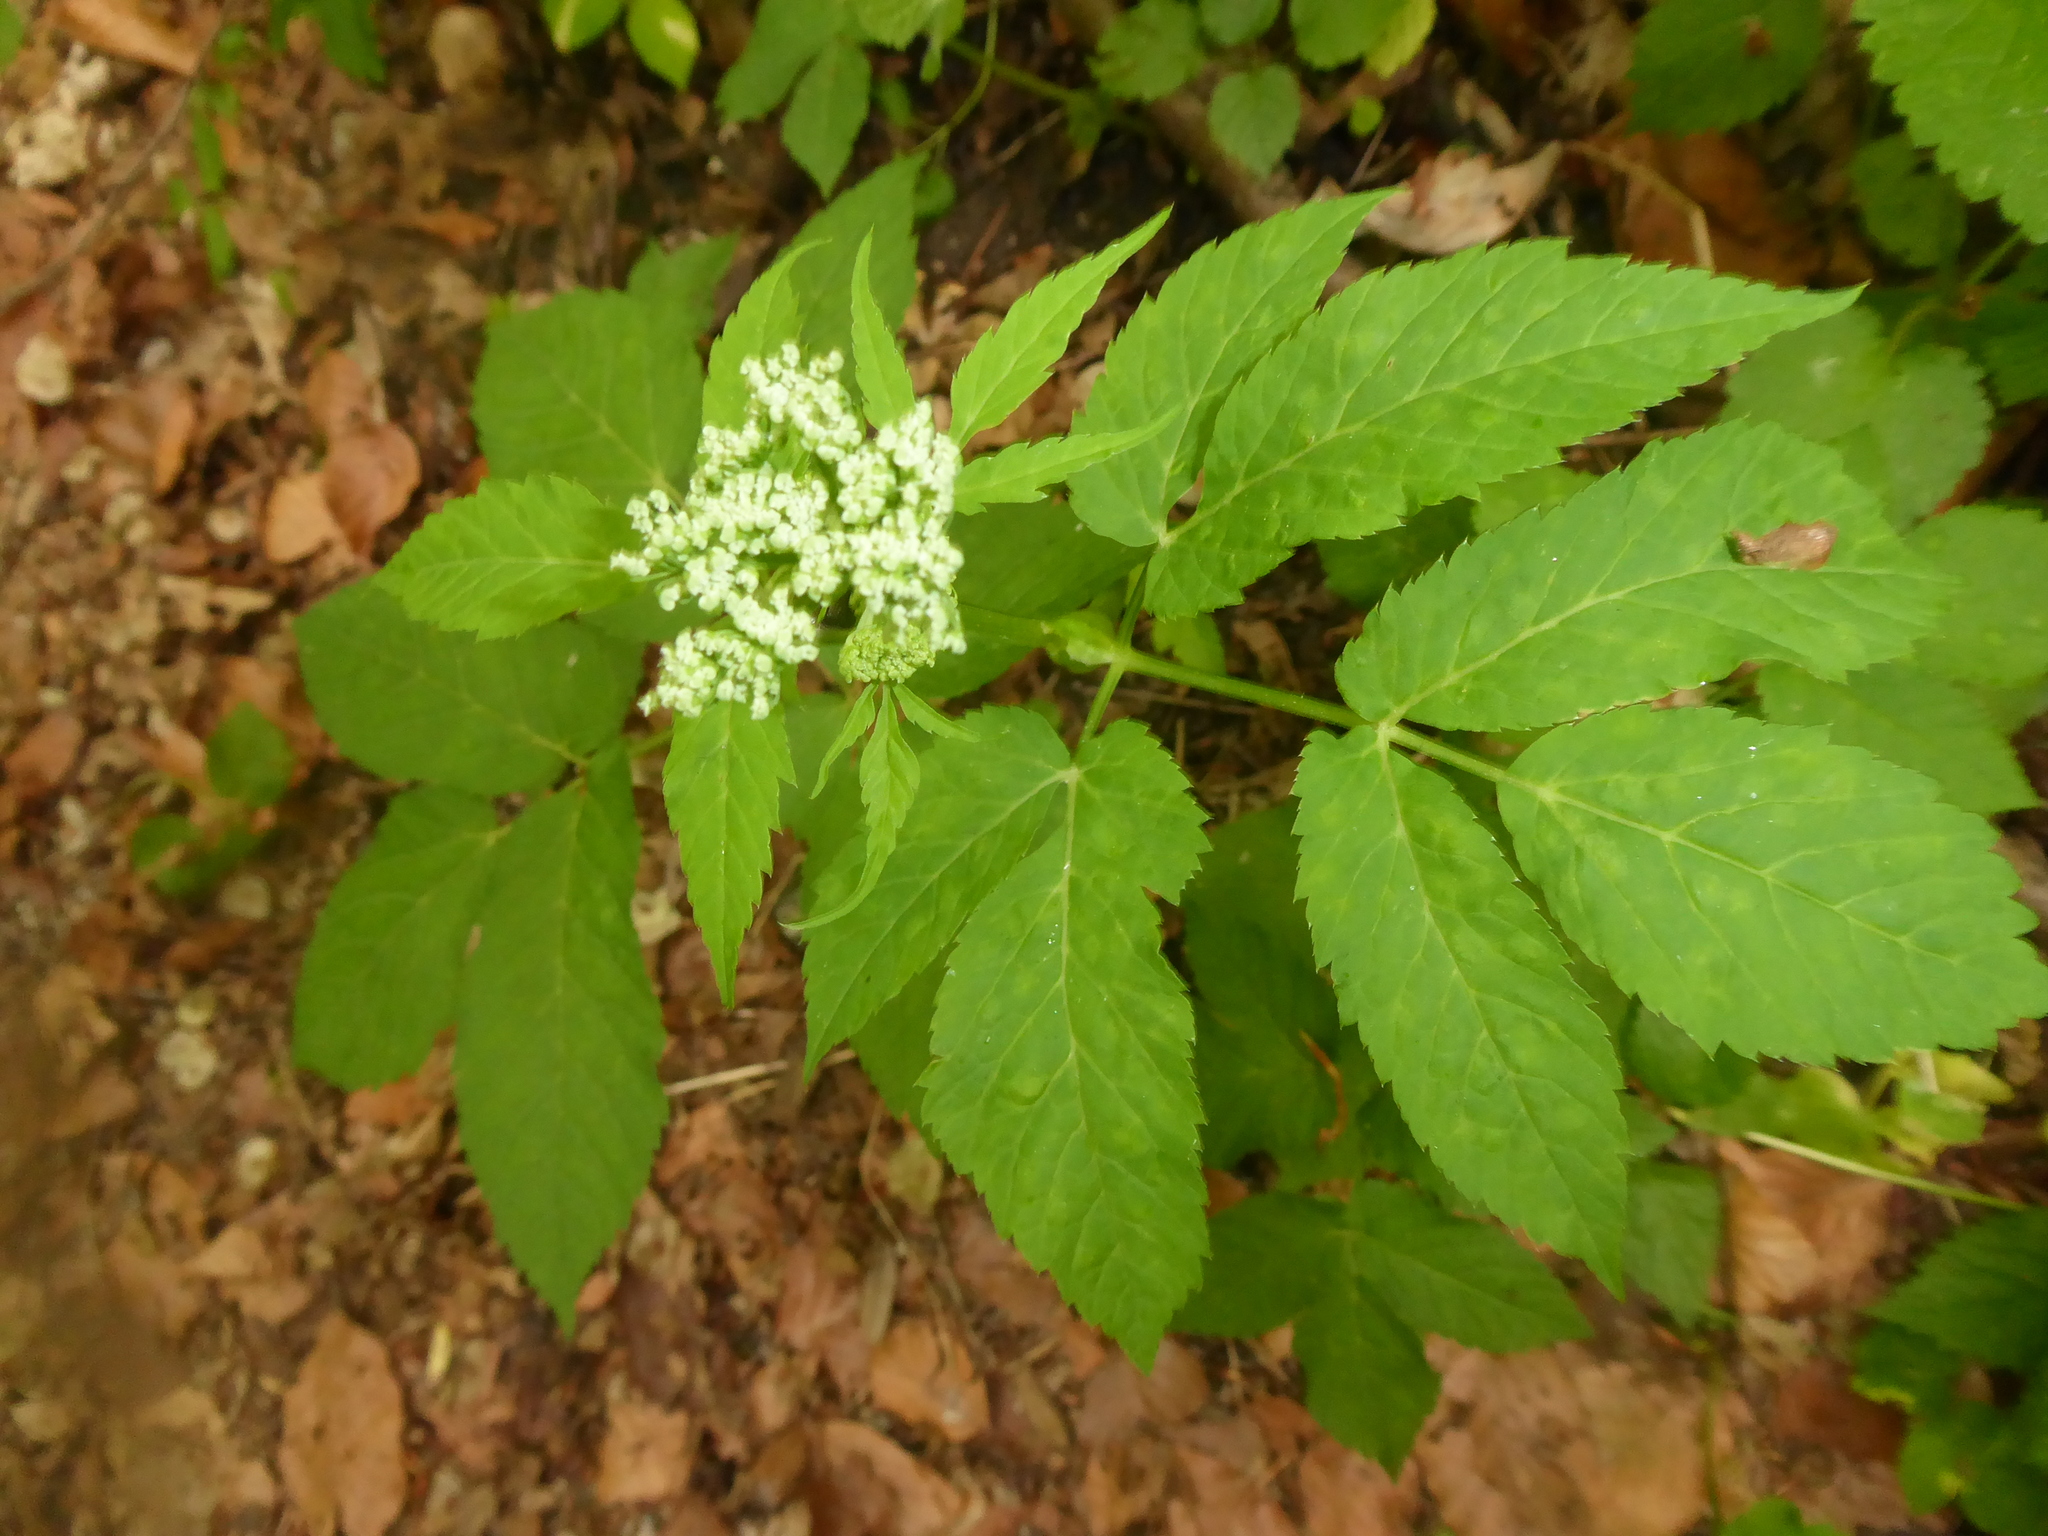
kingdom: Plantae
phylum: Tracheophyta
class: Magnoliopsida
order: Apiales
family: Apiaceae
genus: Aegopodium
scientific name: Aegopodium podagraria
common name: Ground-elder
